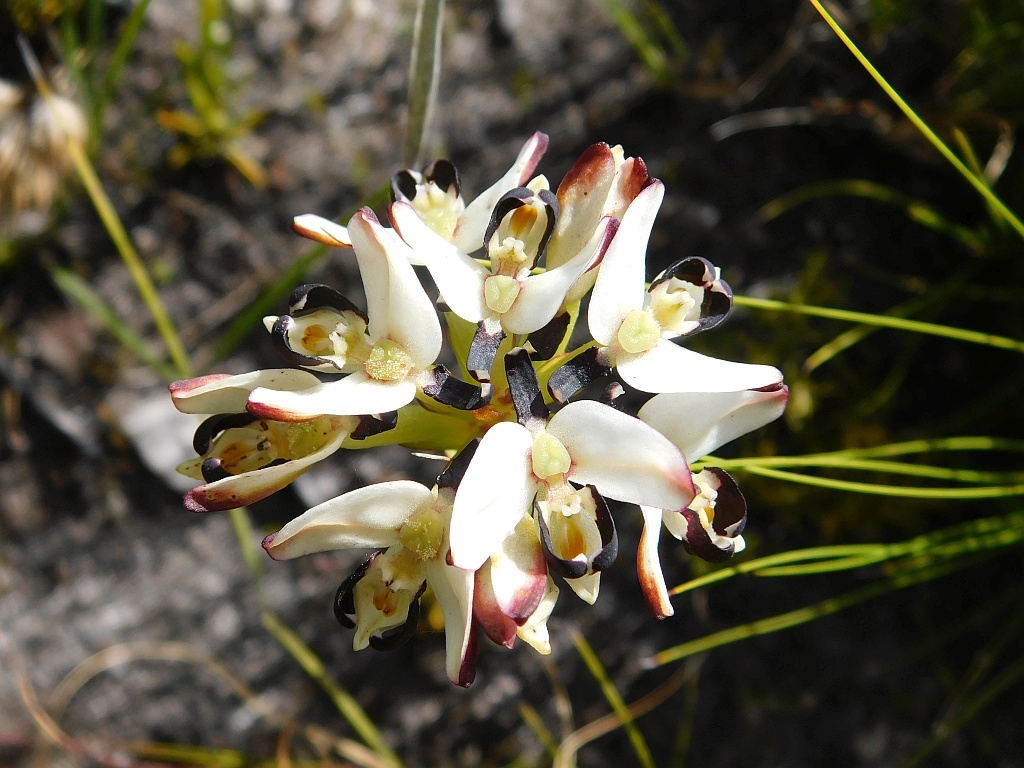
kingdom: Plantae
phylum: Tracheophyta
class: Liliopsida
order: Asparagales
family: Orchidaceae
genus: Disa
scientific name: Disa bivalvata
